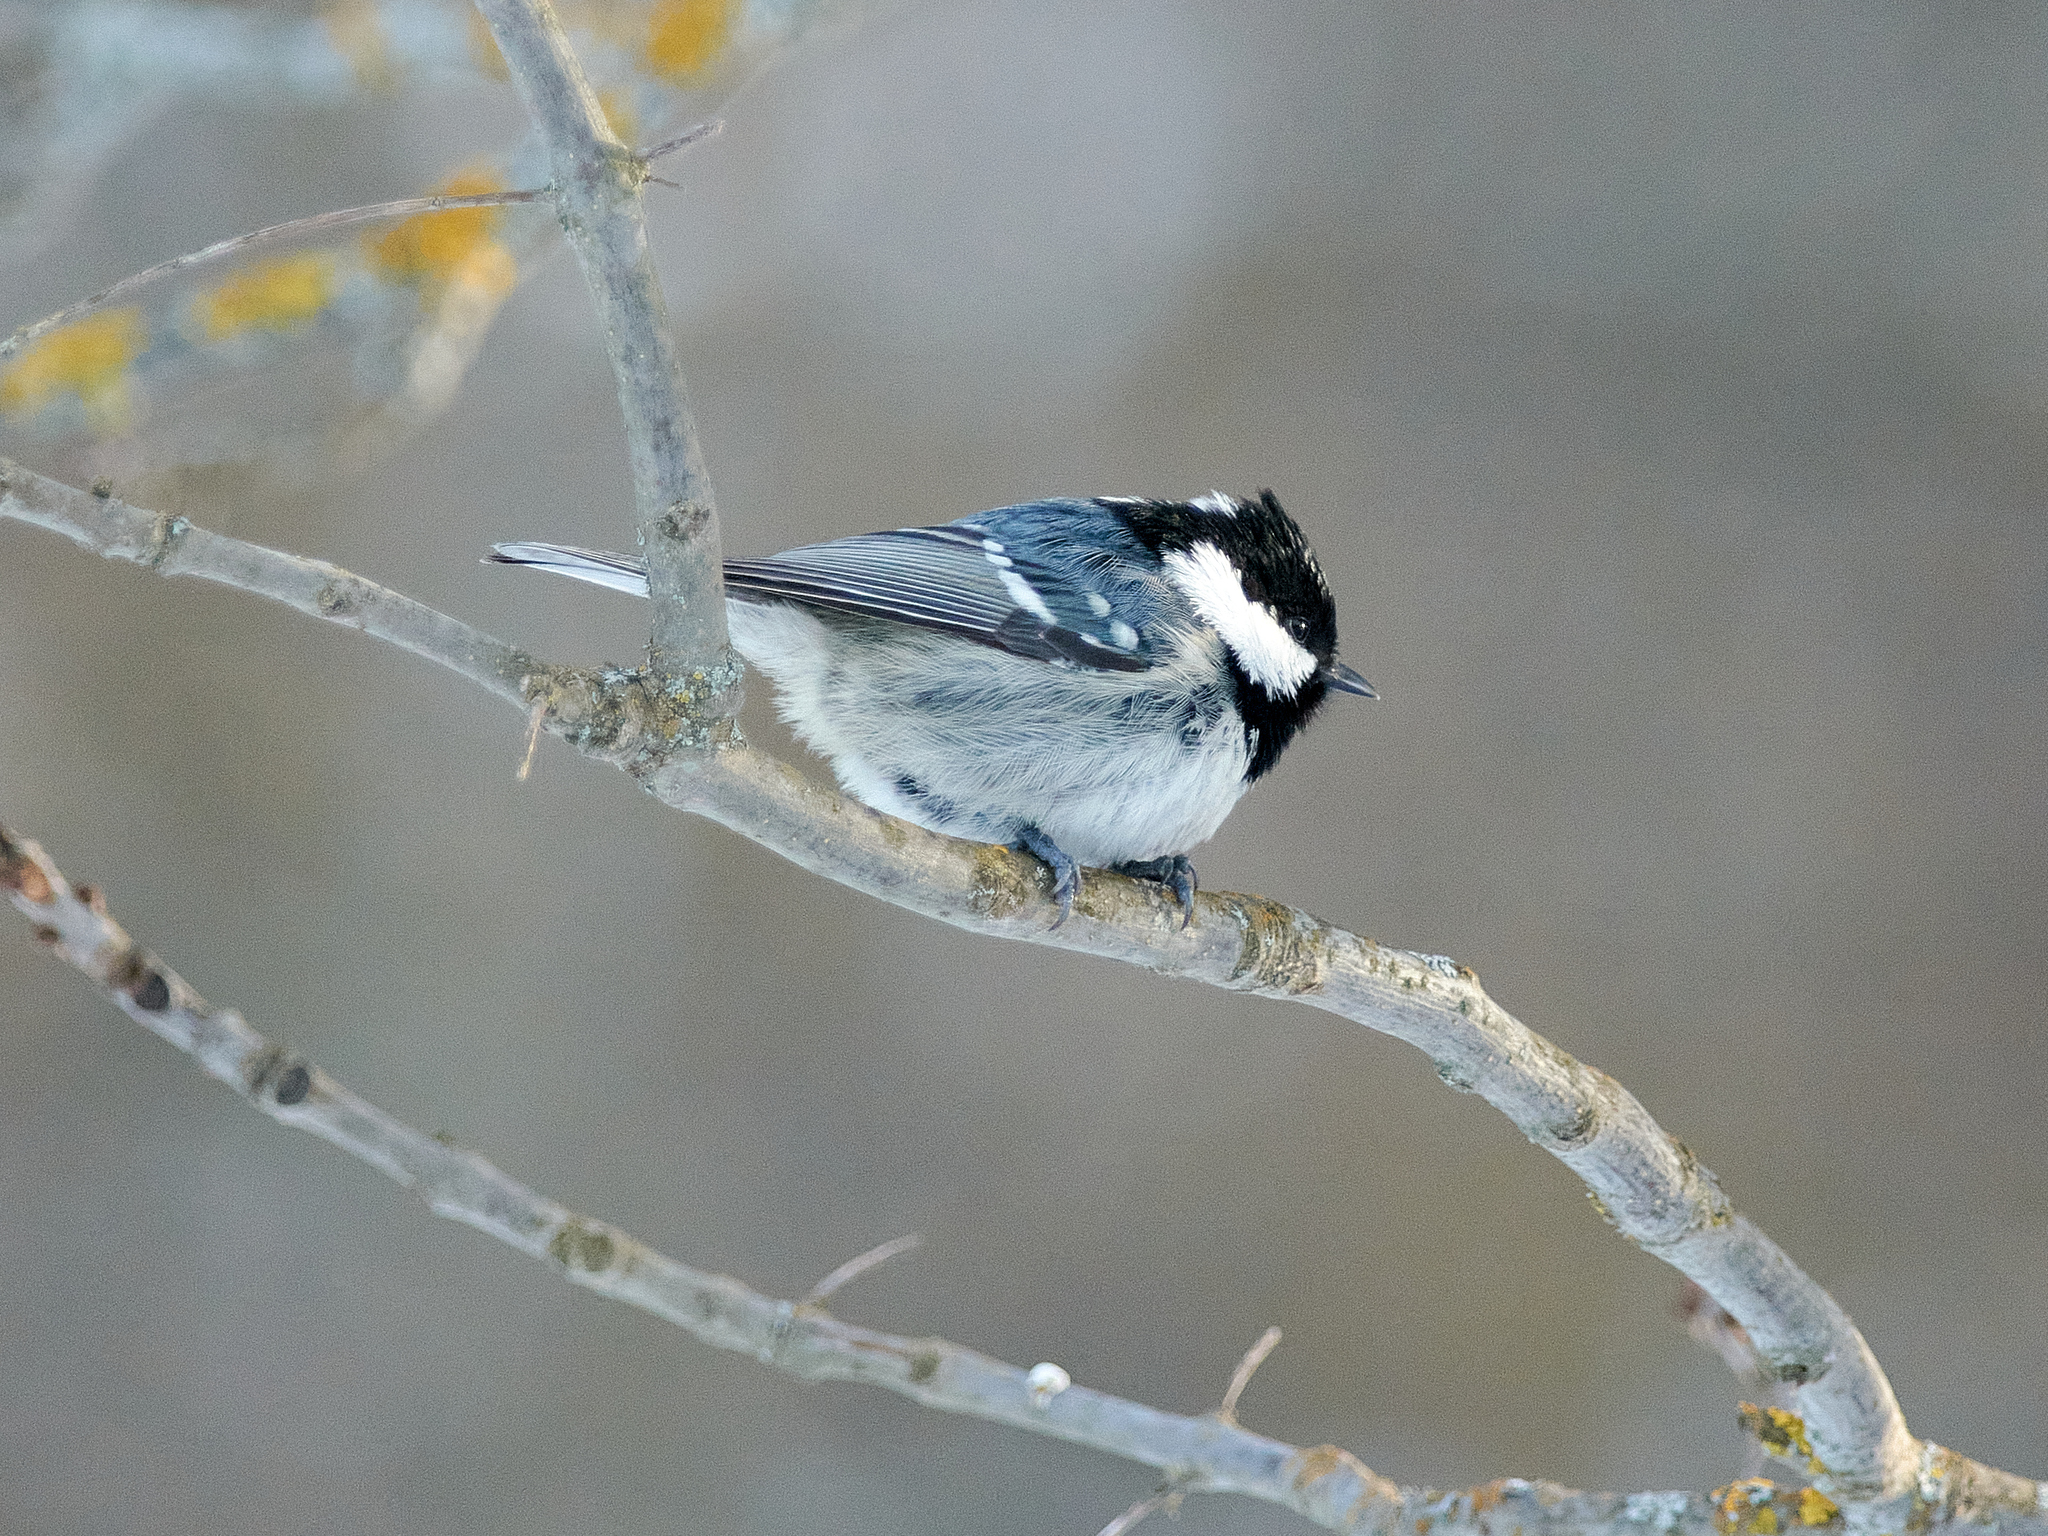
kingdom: Animalia
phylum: Chordata
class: Aves
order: Passeriformes
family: Paridae
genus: Periparus
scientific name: Periparus ater
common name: Coal tit
